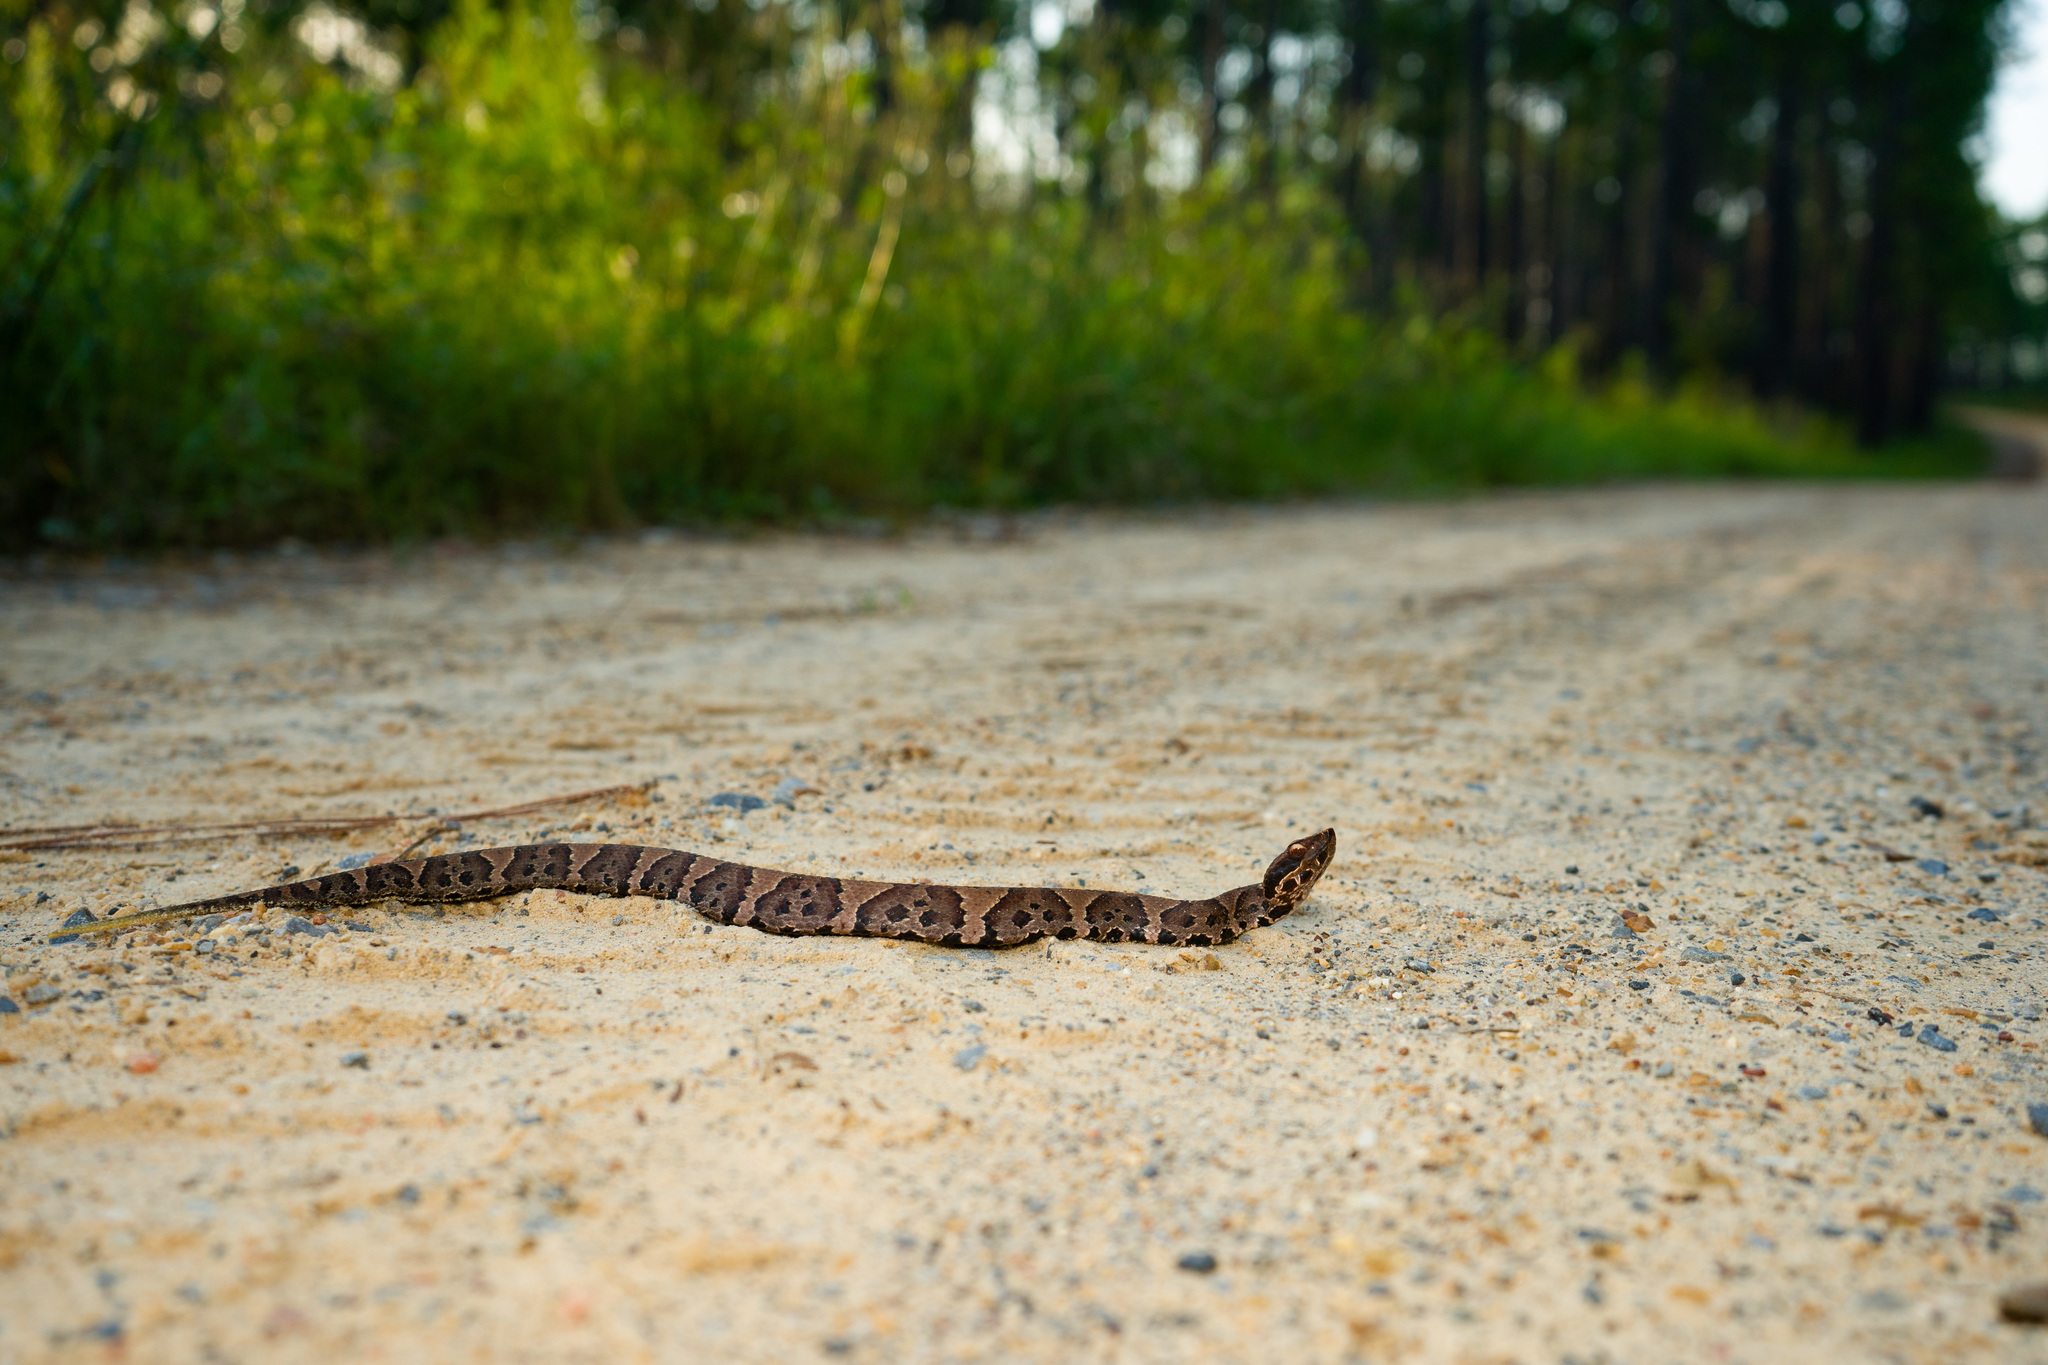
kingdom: Animalia
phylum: Chordata
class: Squamata
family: Viperidae
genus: Agkistrodon
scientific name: Agkistrodon piscivorus
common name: Cottonmouth
